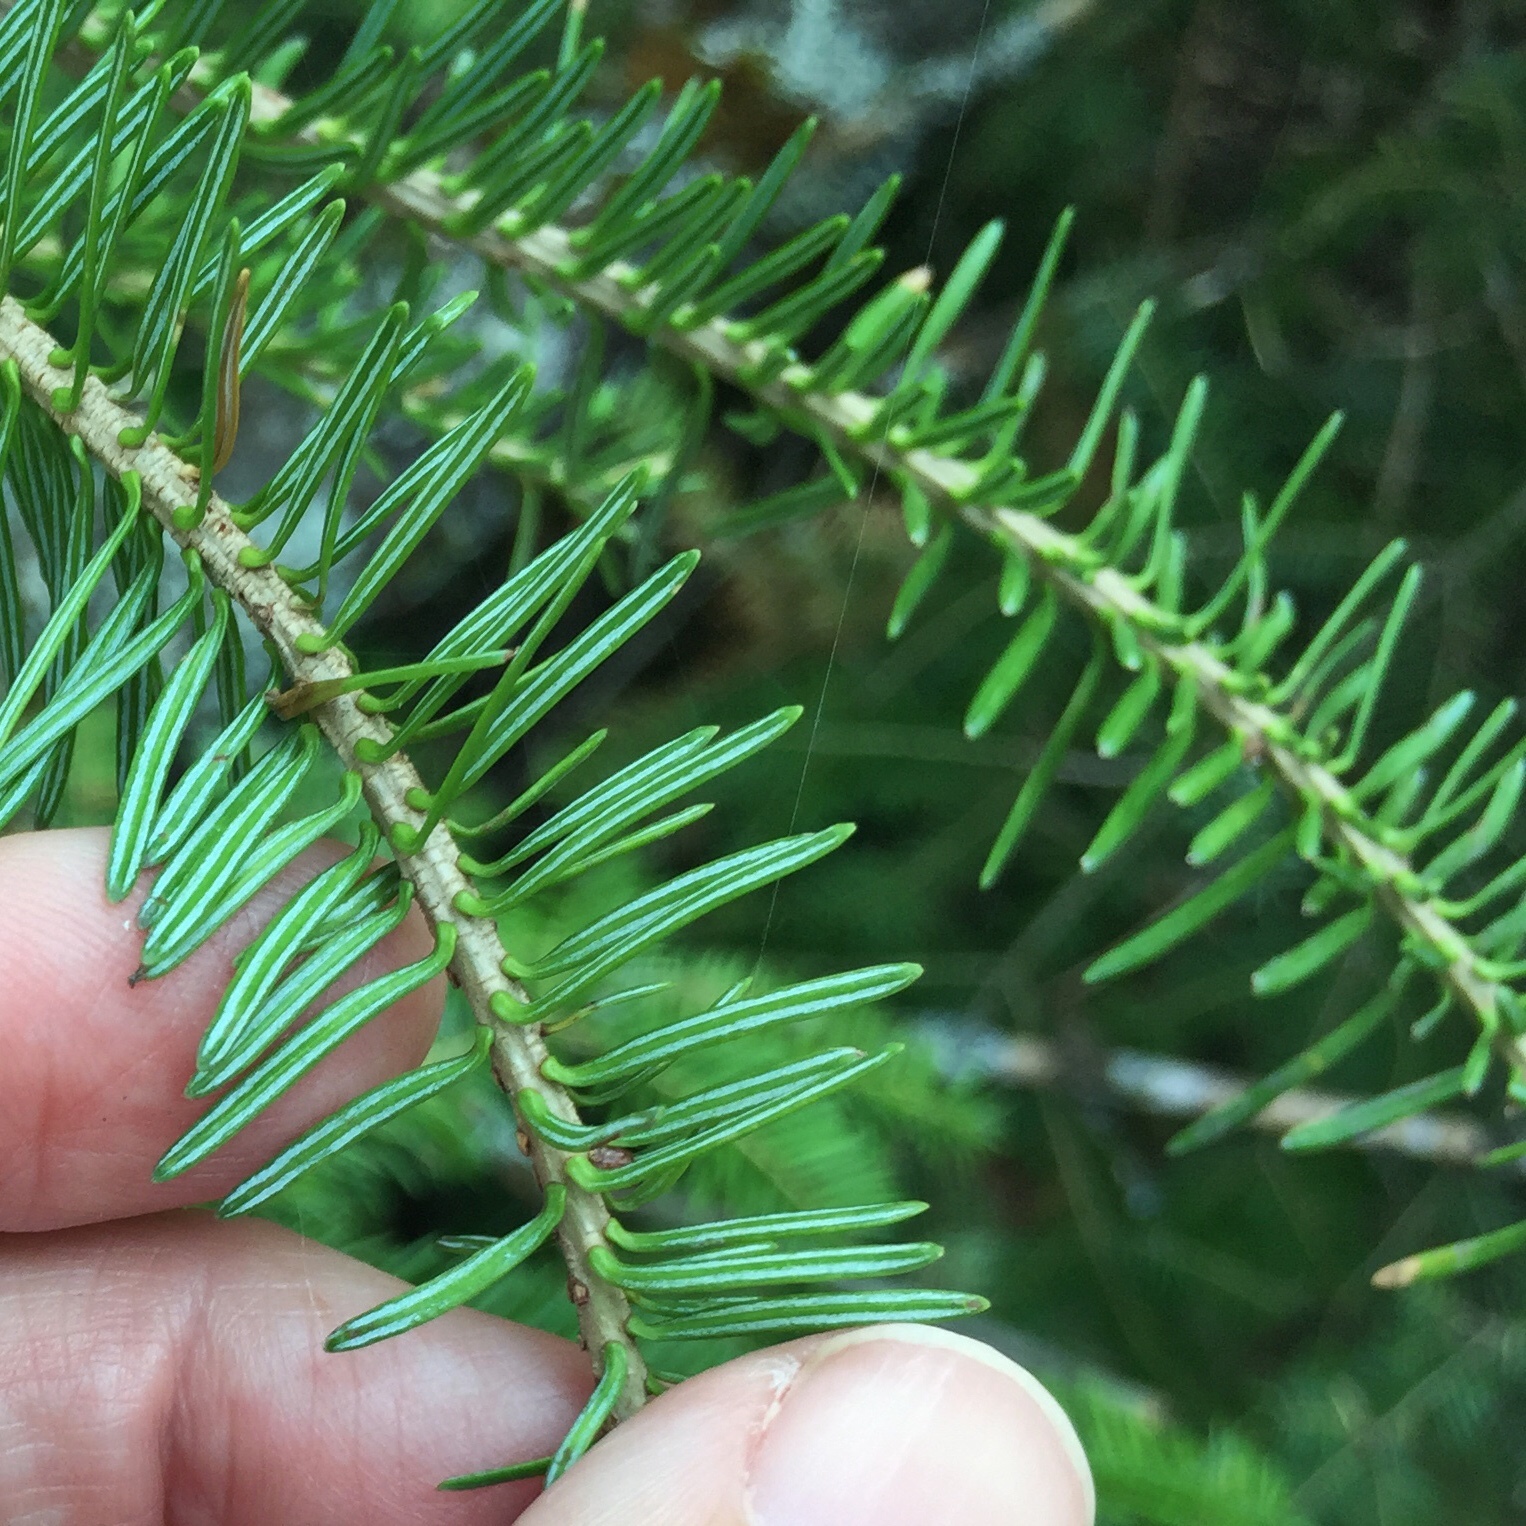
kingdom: Plantae
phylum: Tracheophyta
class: Pinopsida
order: Pinales
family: Pinaceae
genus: Abies
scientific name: Abies balsamea
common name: Balsam fir
